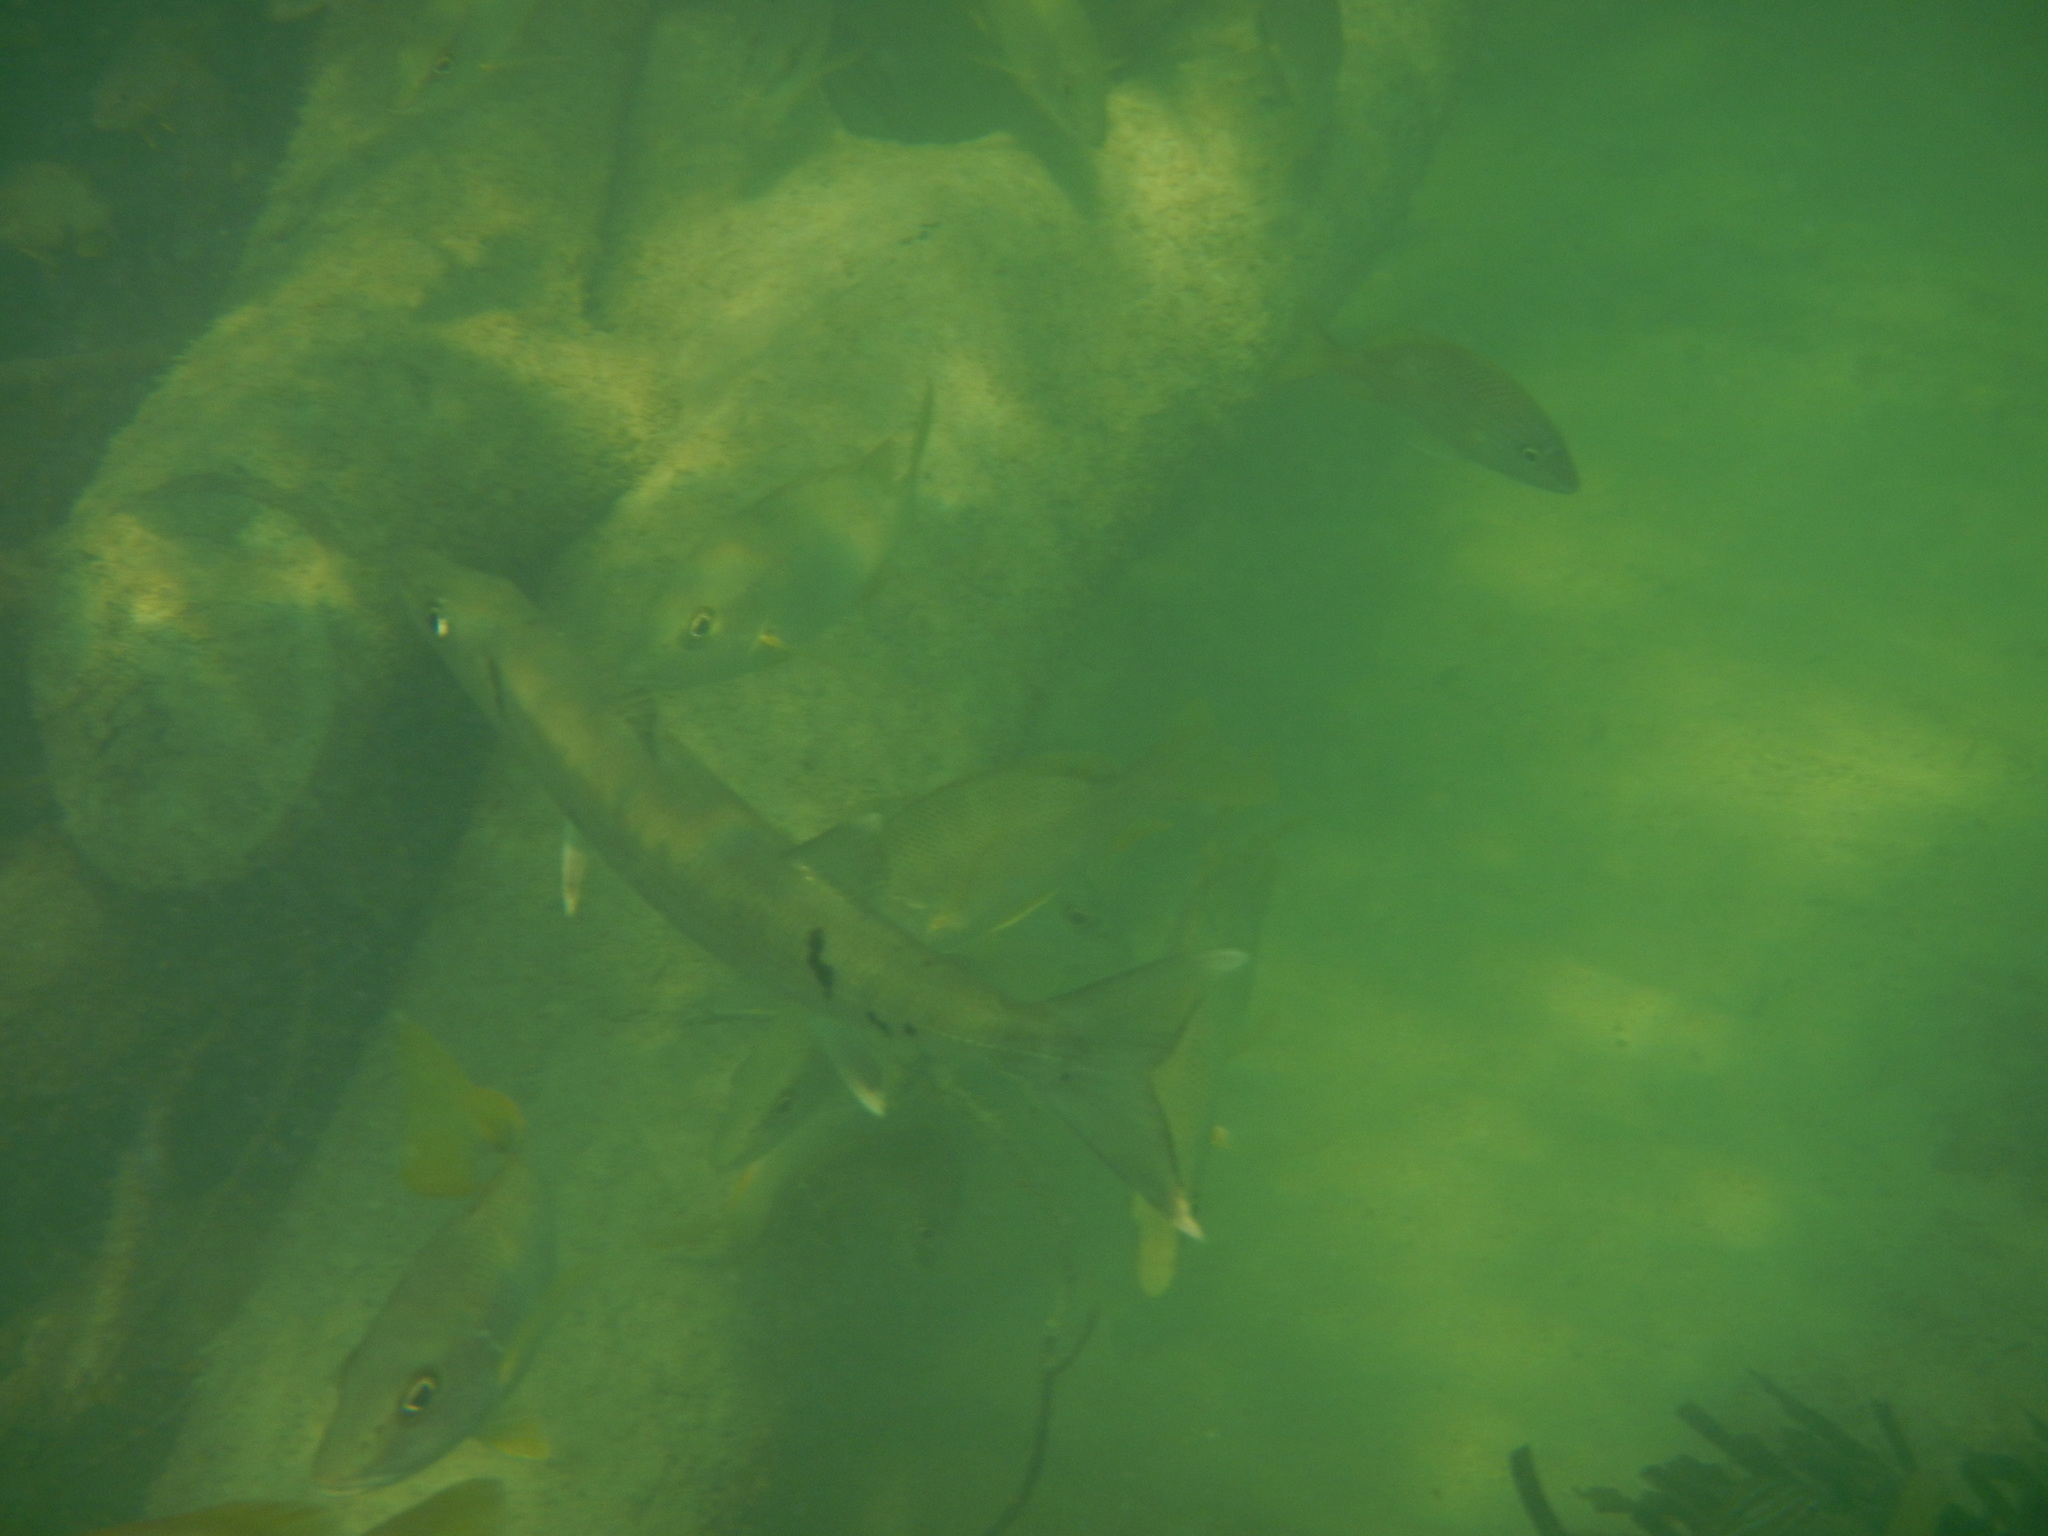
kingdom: Animalia
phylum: Chordata
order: Perciformes
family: Sphyraenidae
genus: Sphyraena
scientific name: Sphyraena barracuda
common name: Great barracuda
